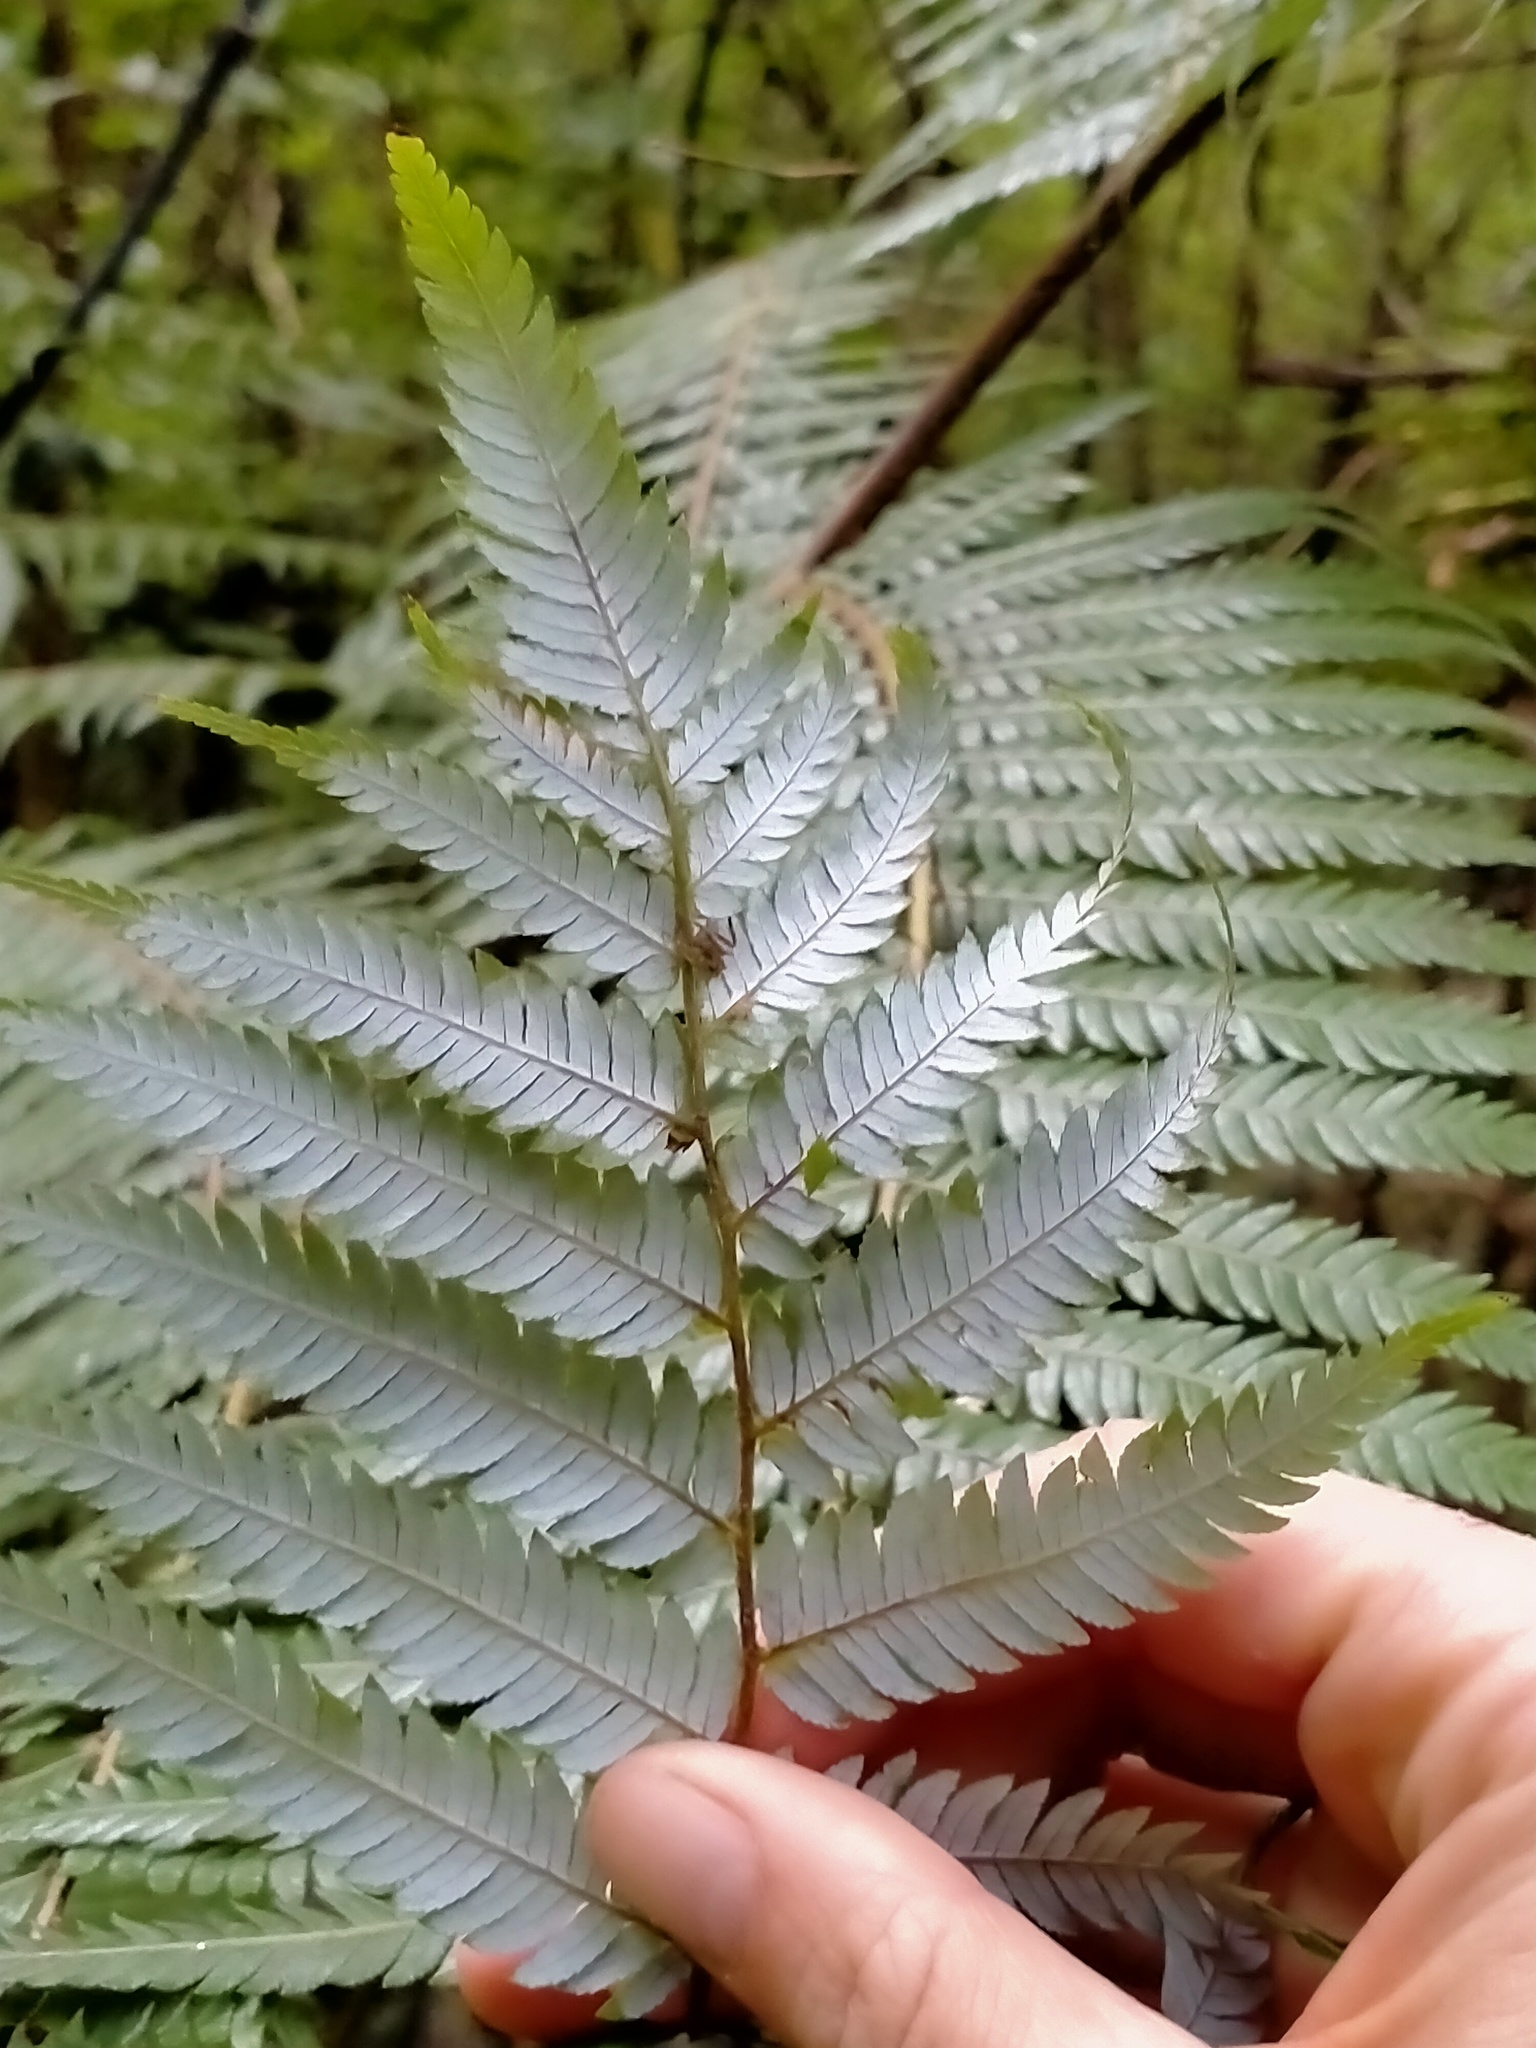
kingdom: Plantae
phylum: Tracheophyta
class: Polypodiopsida
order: Cyatheales
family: Cyatheaceae
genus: Alsophila
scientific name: Alsophila dealbata
